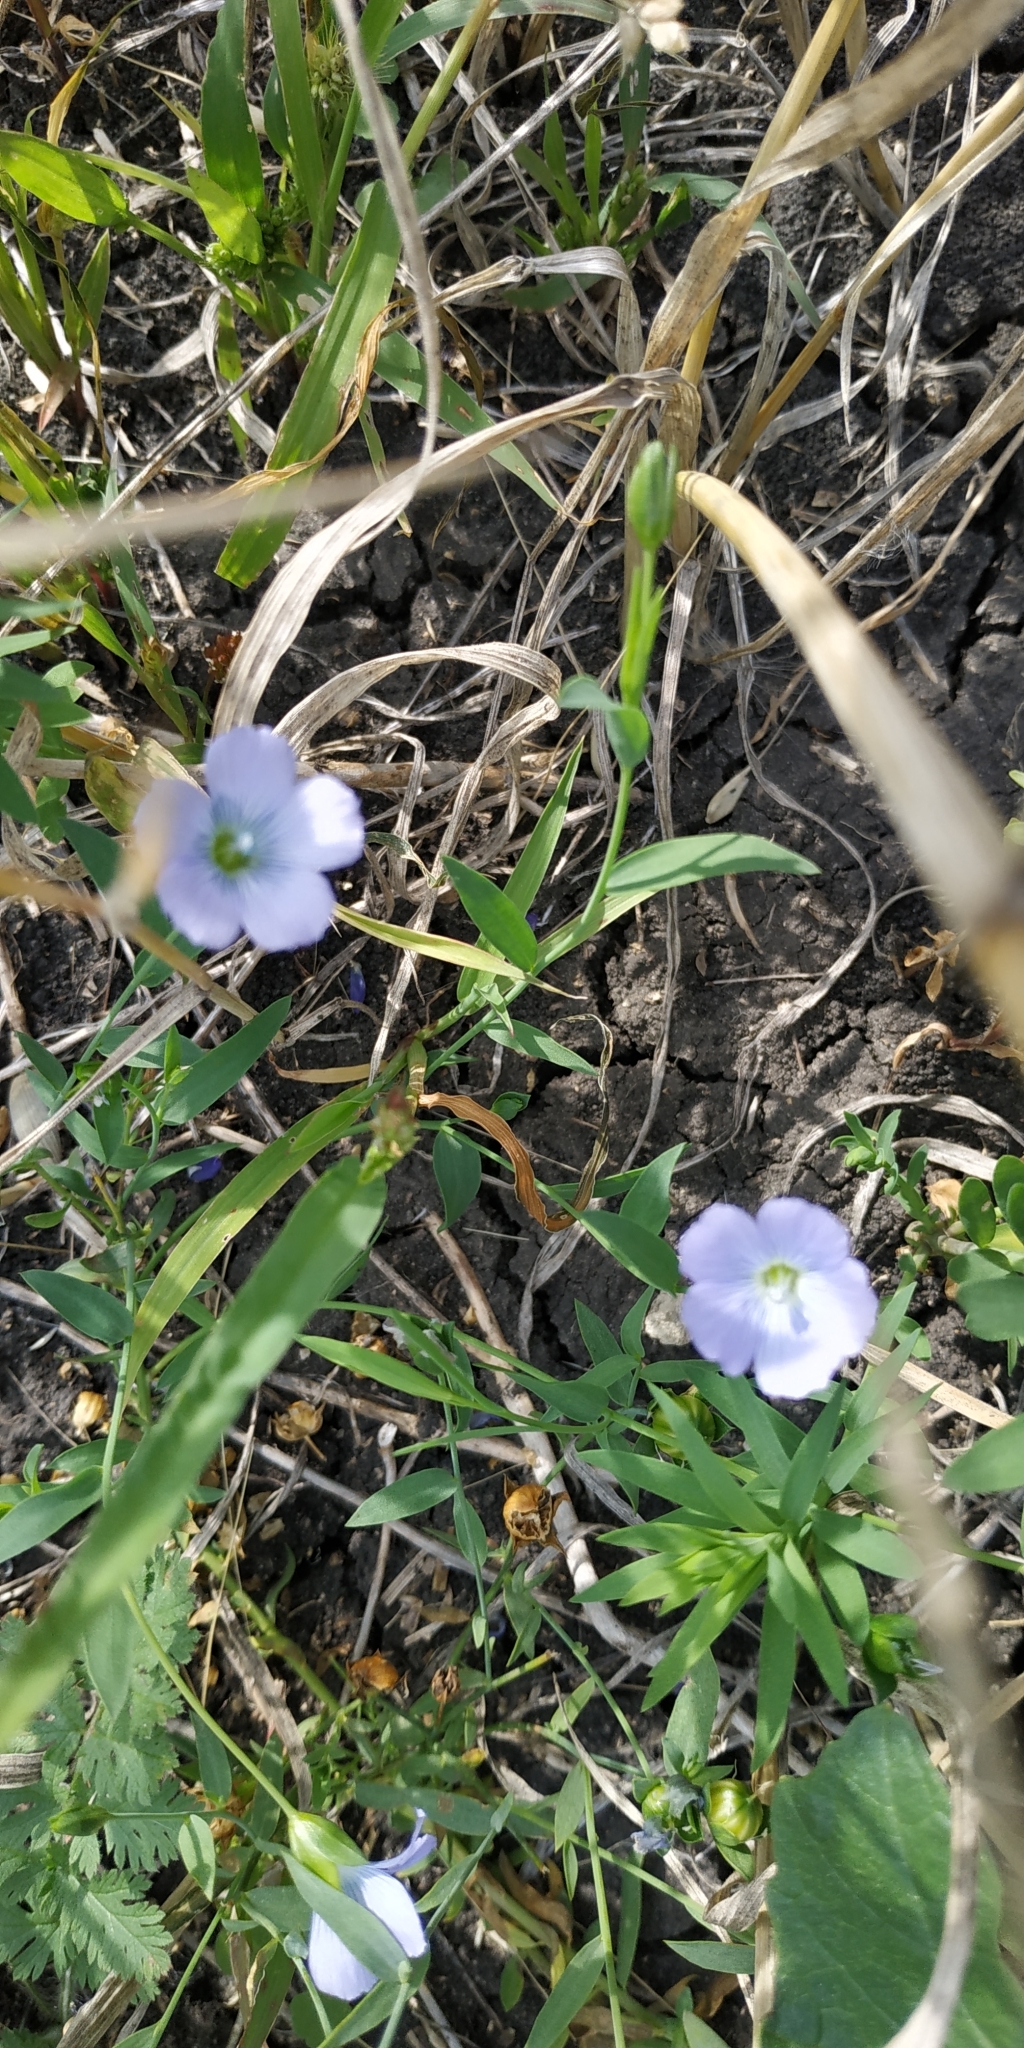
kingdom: Plantae
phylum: Tracheophyta
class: Magnoliopsida
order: Malpighiales
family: Linaceae
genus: Linum
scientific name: Linum usitatissimum
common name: Flax
